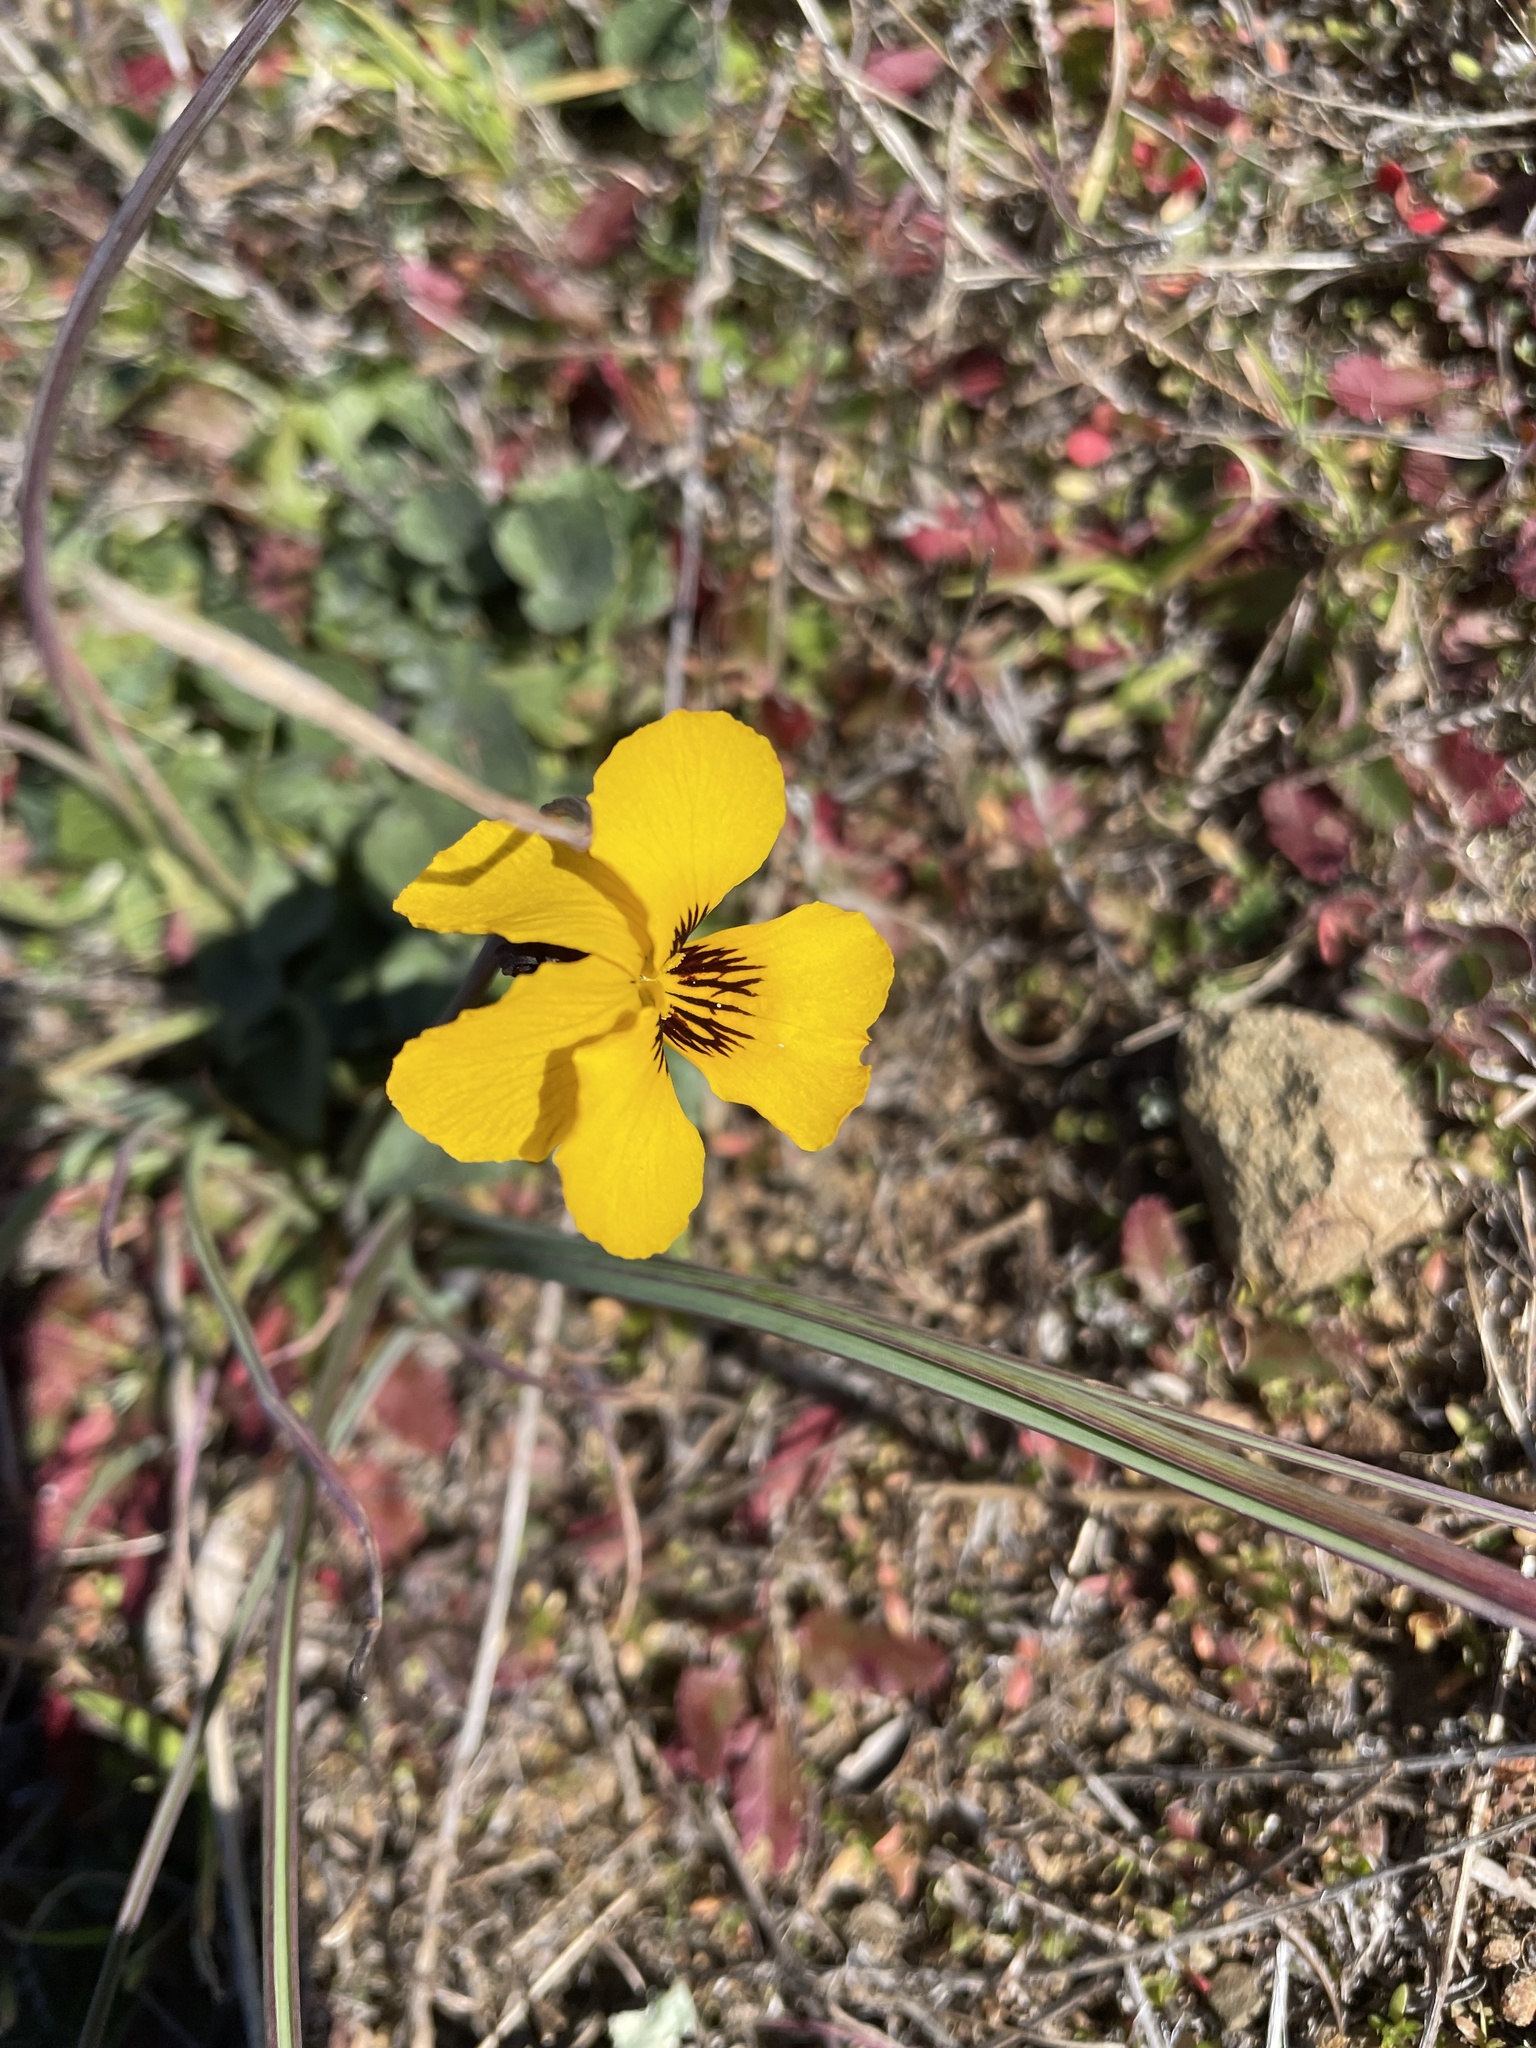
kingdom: Plantae
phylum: Tracheophyta
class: Magnoliopsida
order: Malpighiales
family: Violaceae
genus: Viola
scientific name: Viola pedunculata
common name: California golden violet
